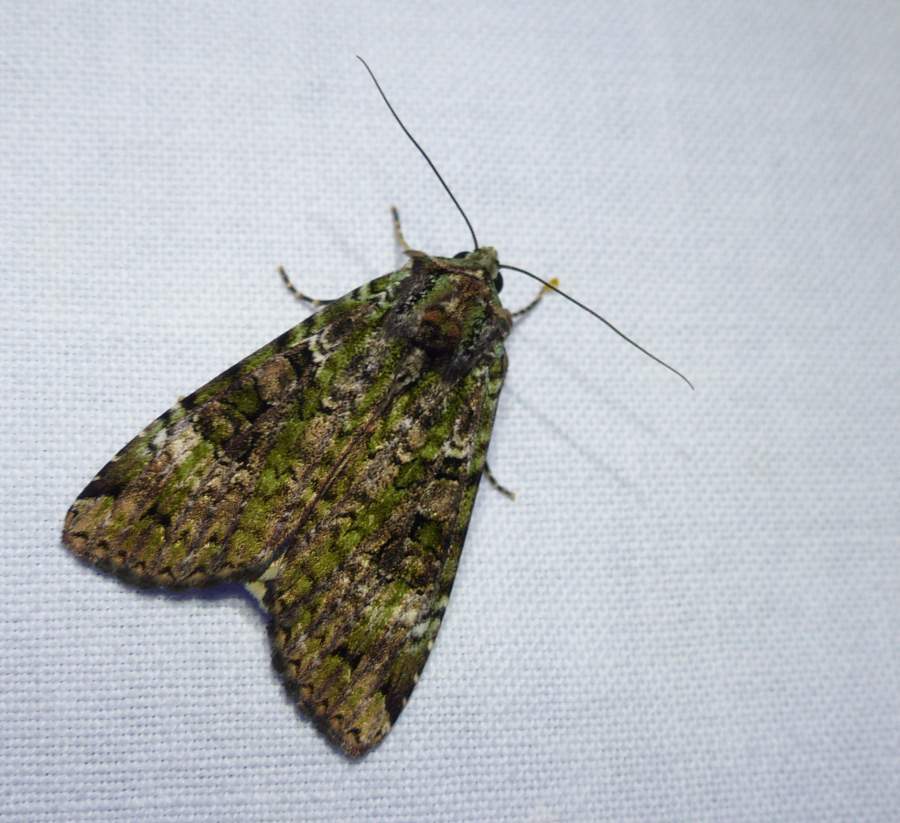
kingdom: Animalia
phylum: Arthropoda
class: Insecta
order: Lepidoptera
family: Noctuidae
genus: Anaplectoides
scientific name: Anaplectoides prasina
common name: Green arches
